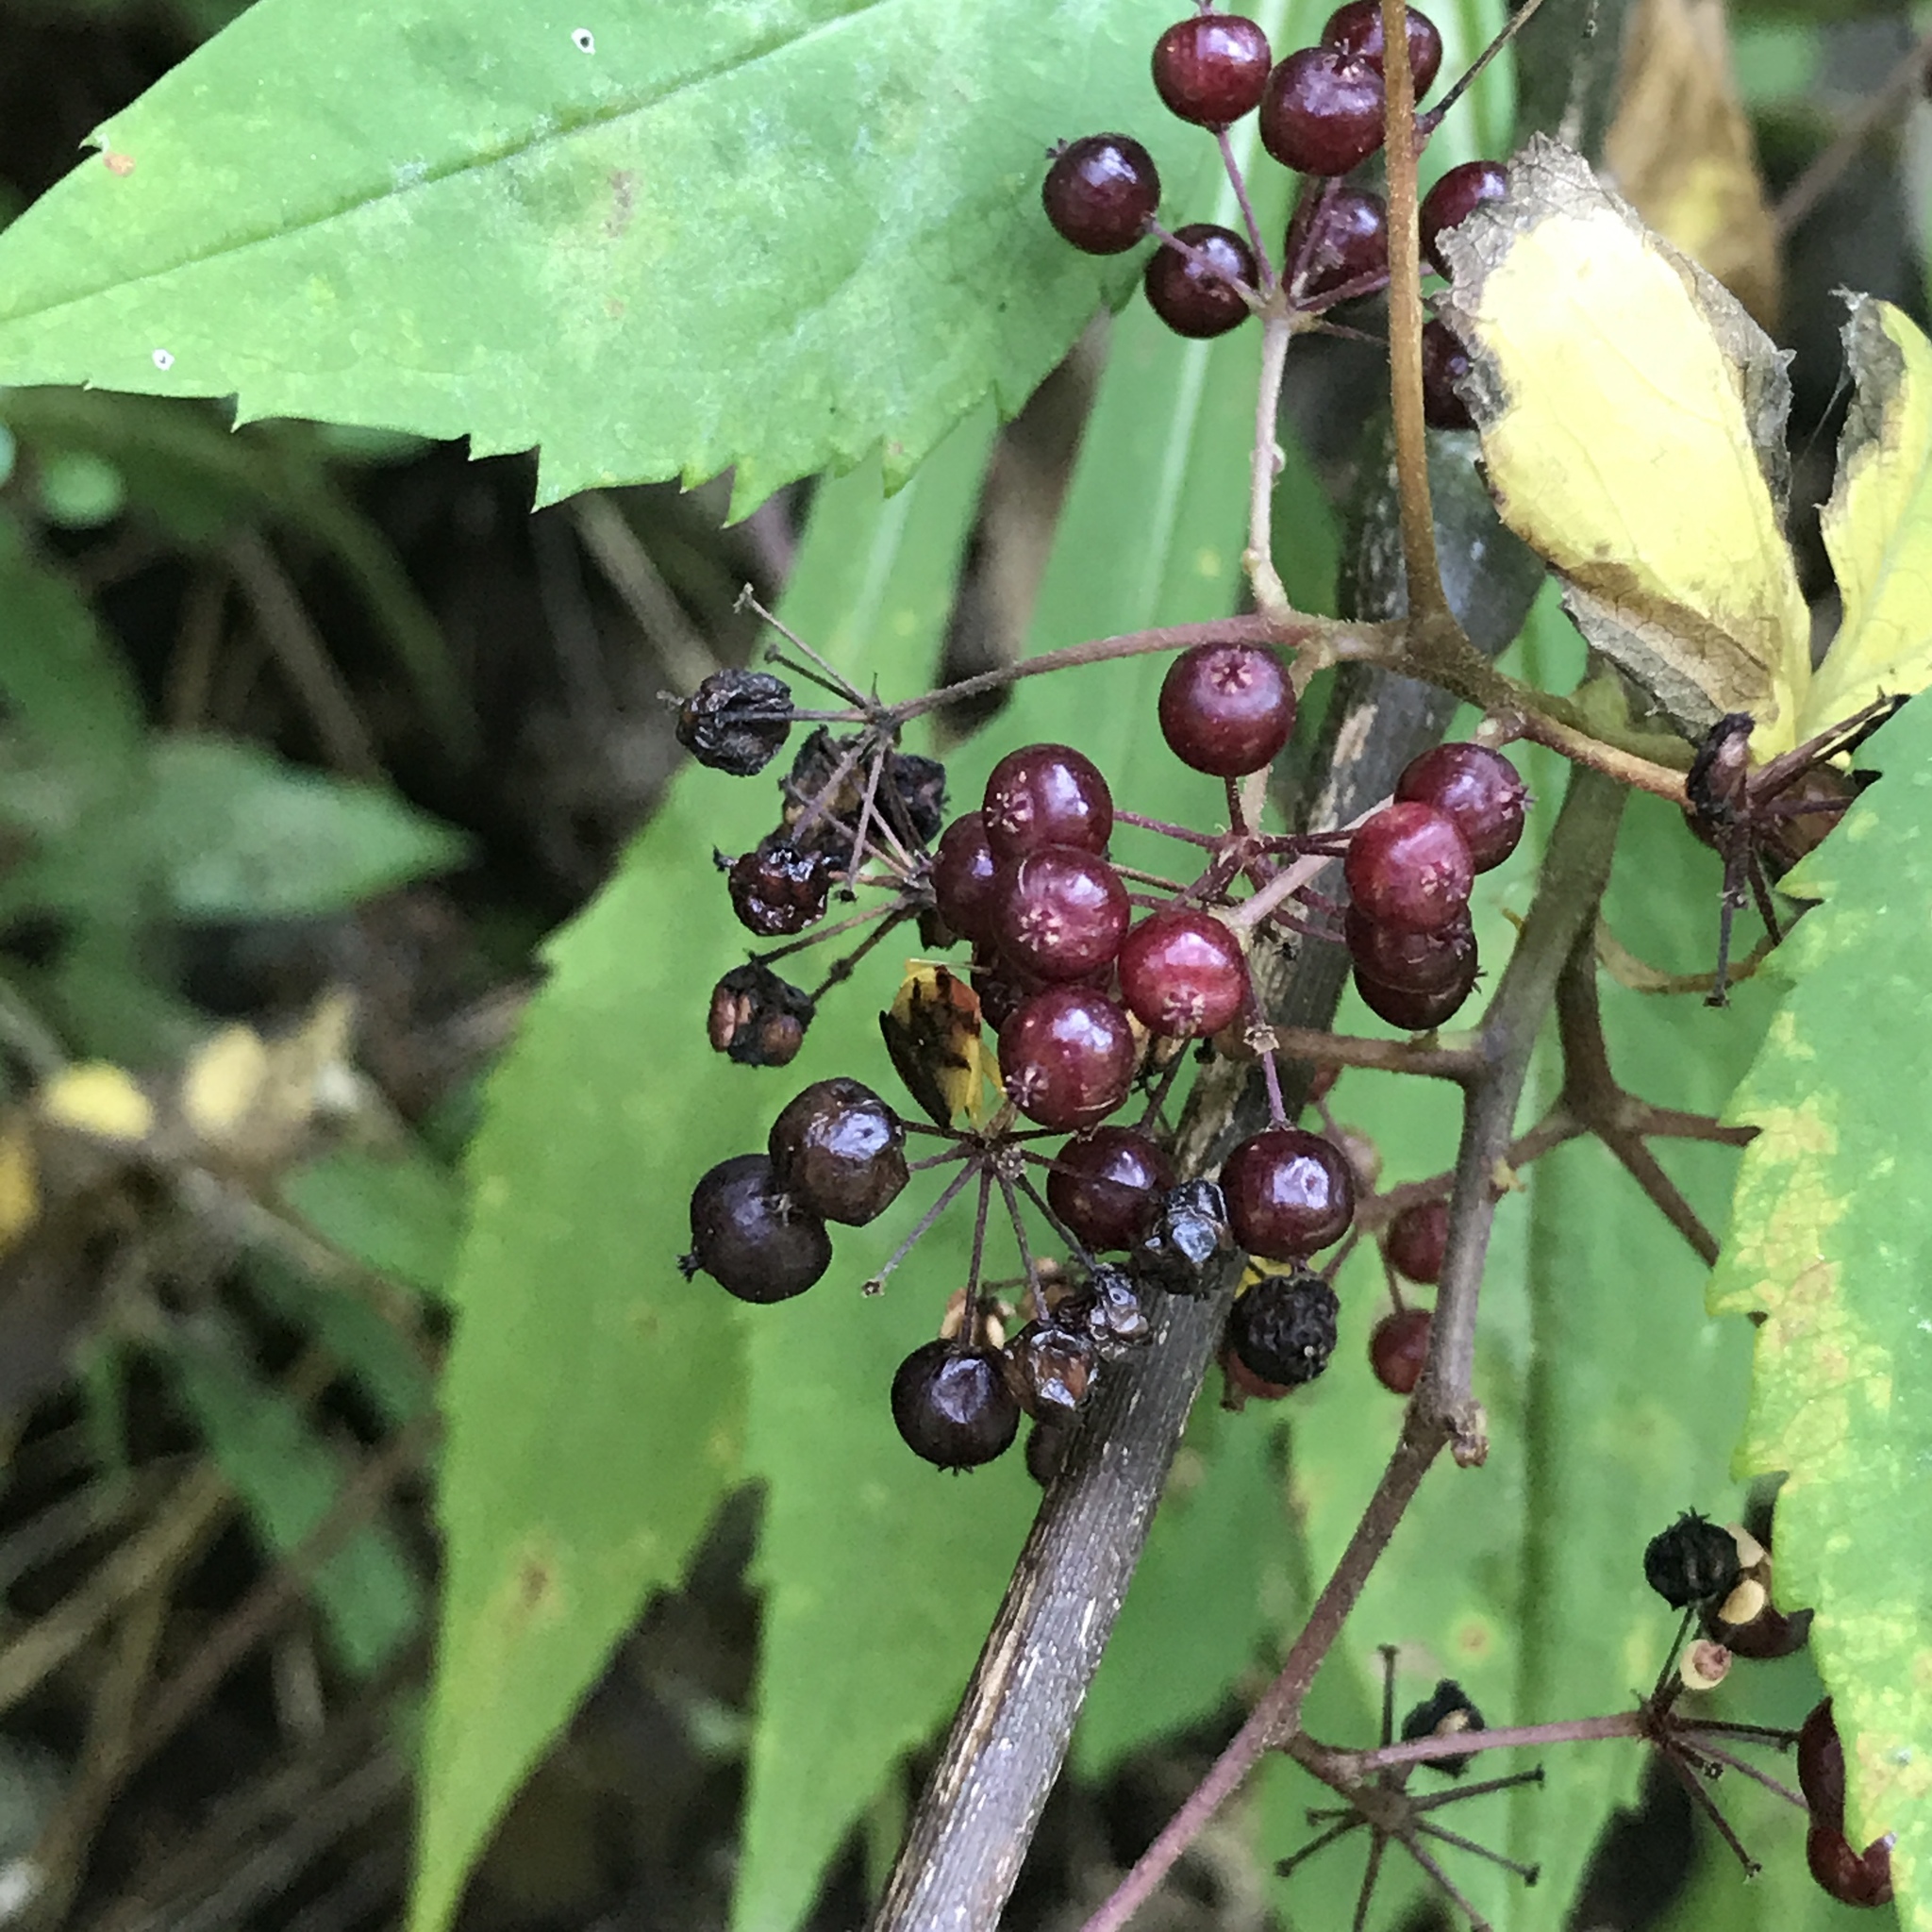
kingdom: Plantae
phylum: Tracheophyta
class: Magnoliopsida
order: Apiales
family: Araliaceae
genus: Aralia
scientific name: Aralia racemosa
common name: American-spikenard
